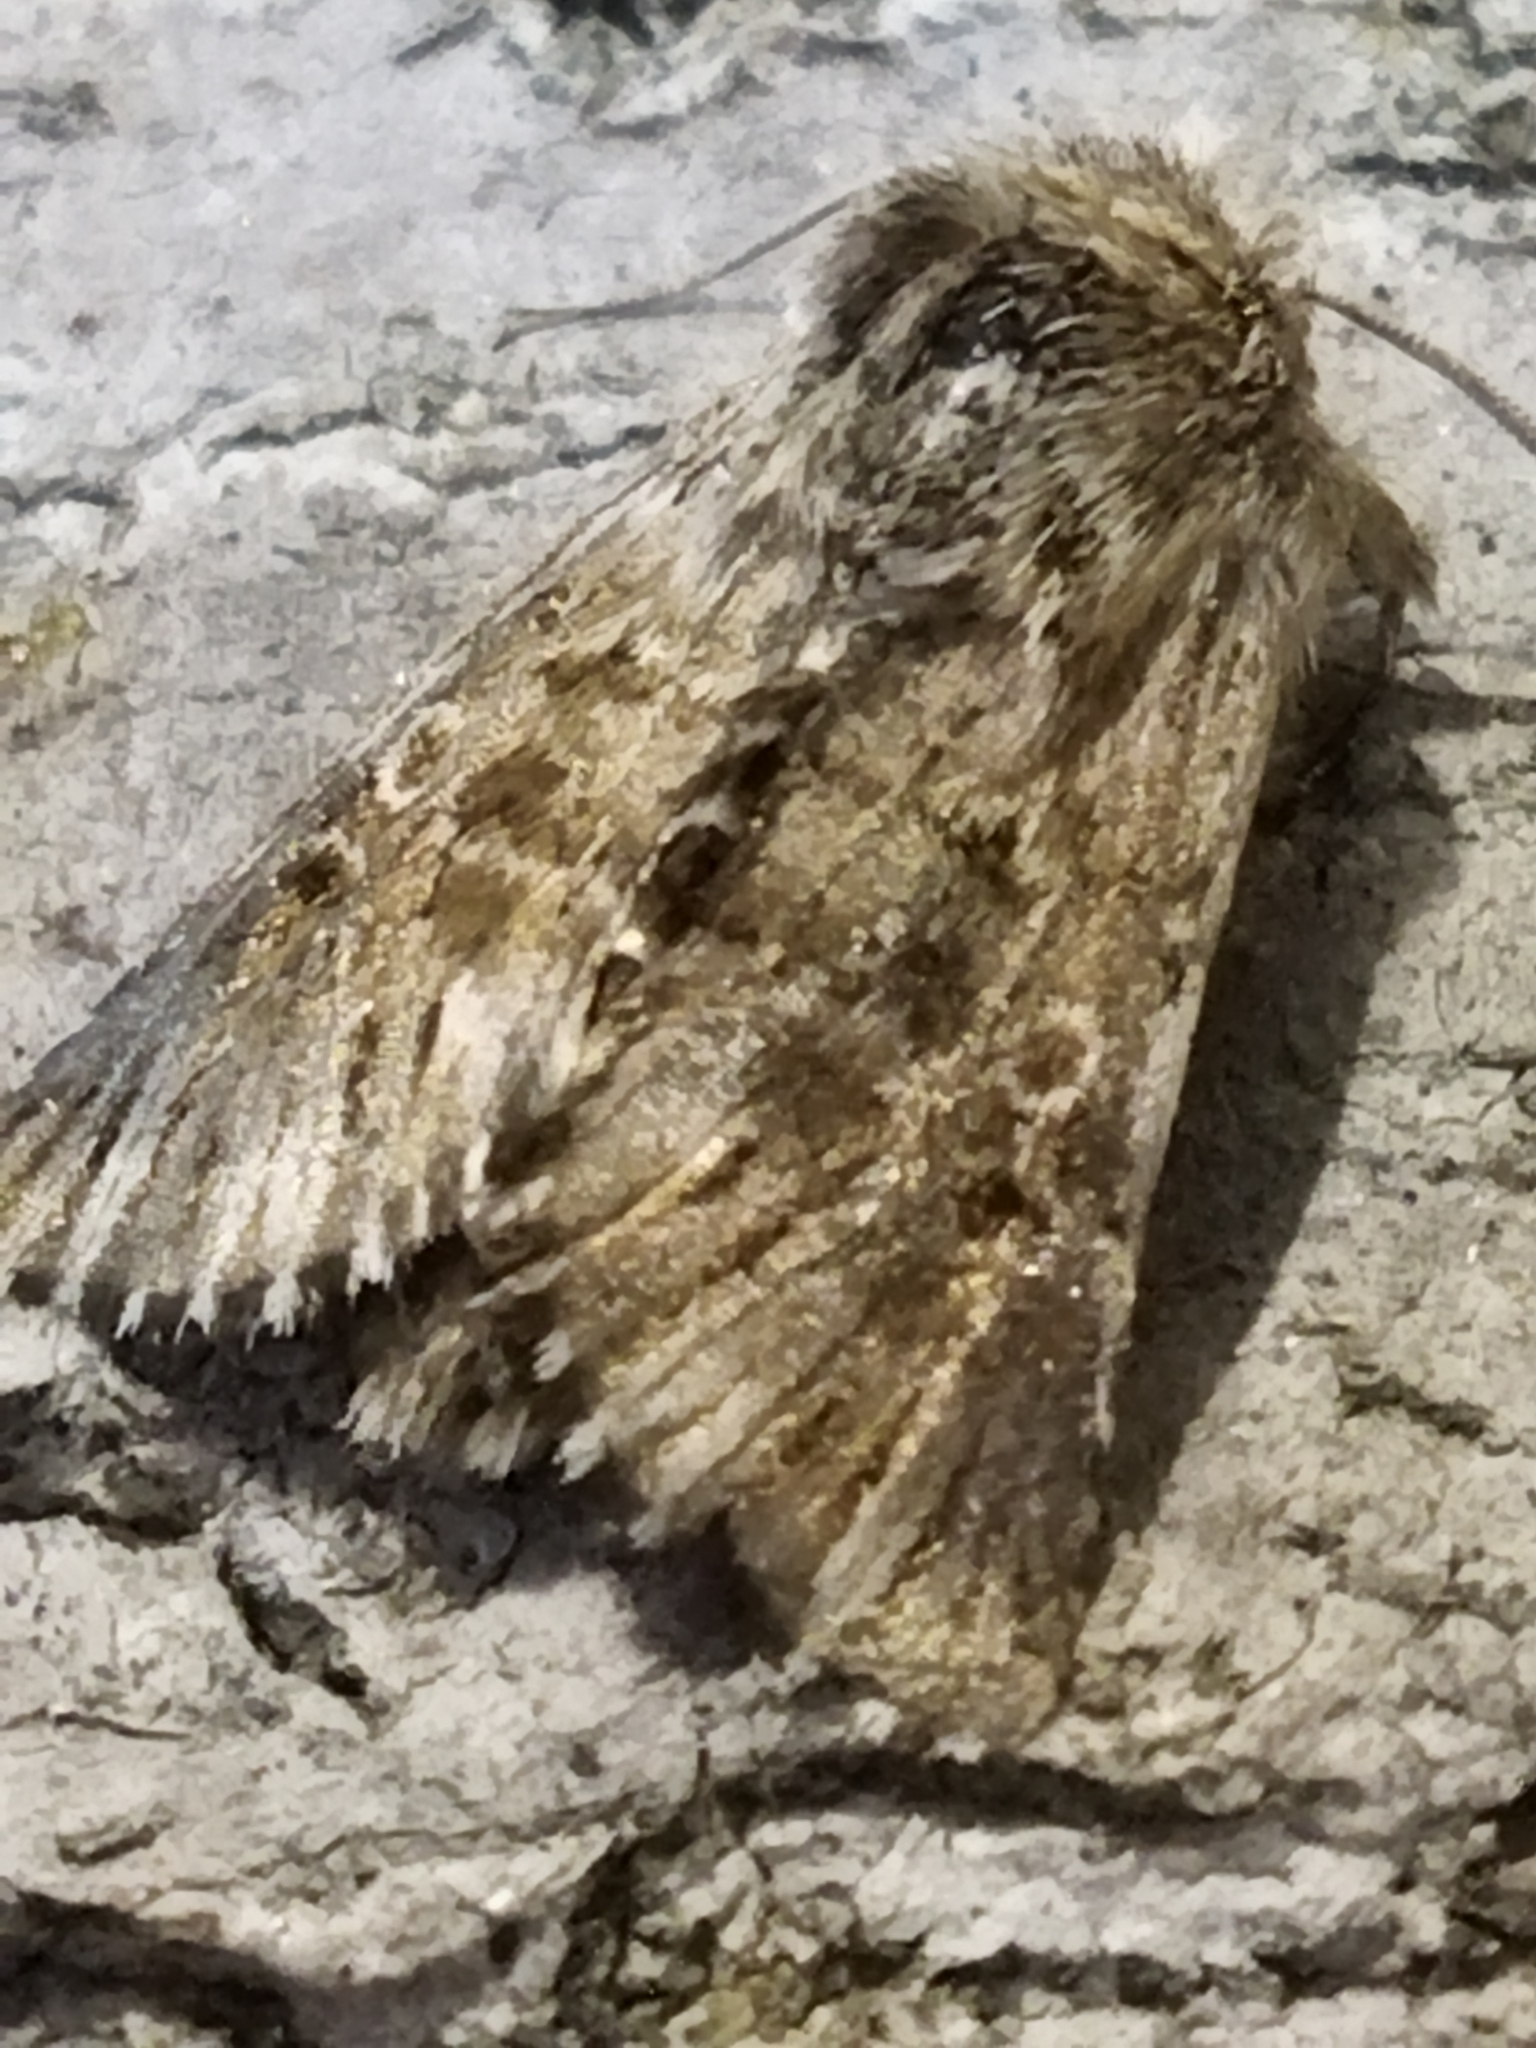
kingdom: Animalia
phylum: Arthropoda
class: Insecta
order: Lepidoptera
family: Noctuidae
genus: Omphalophana
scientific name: Omphalophana antirrhinii
